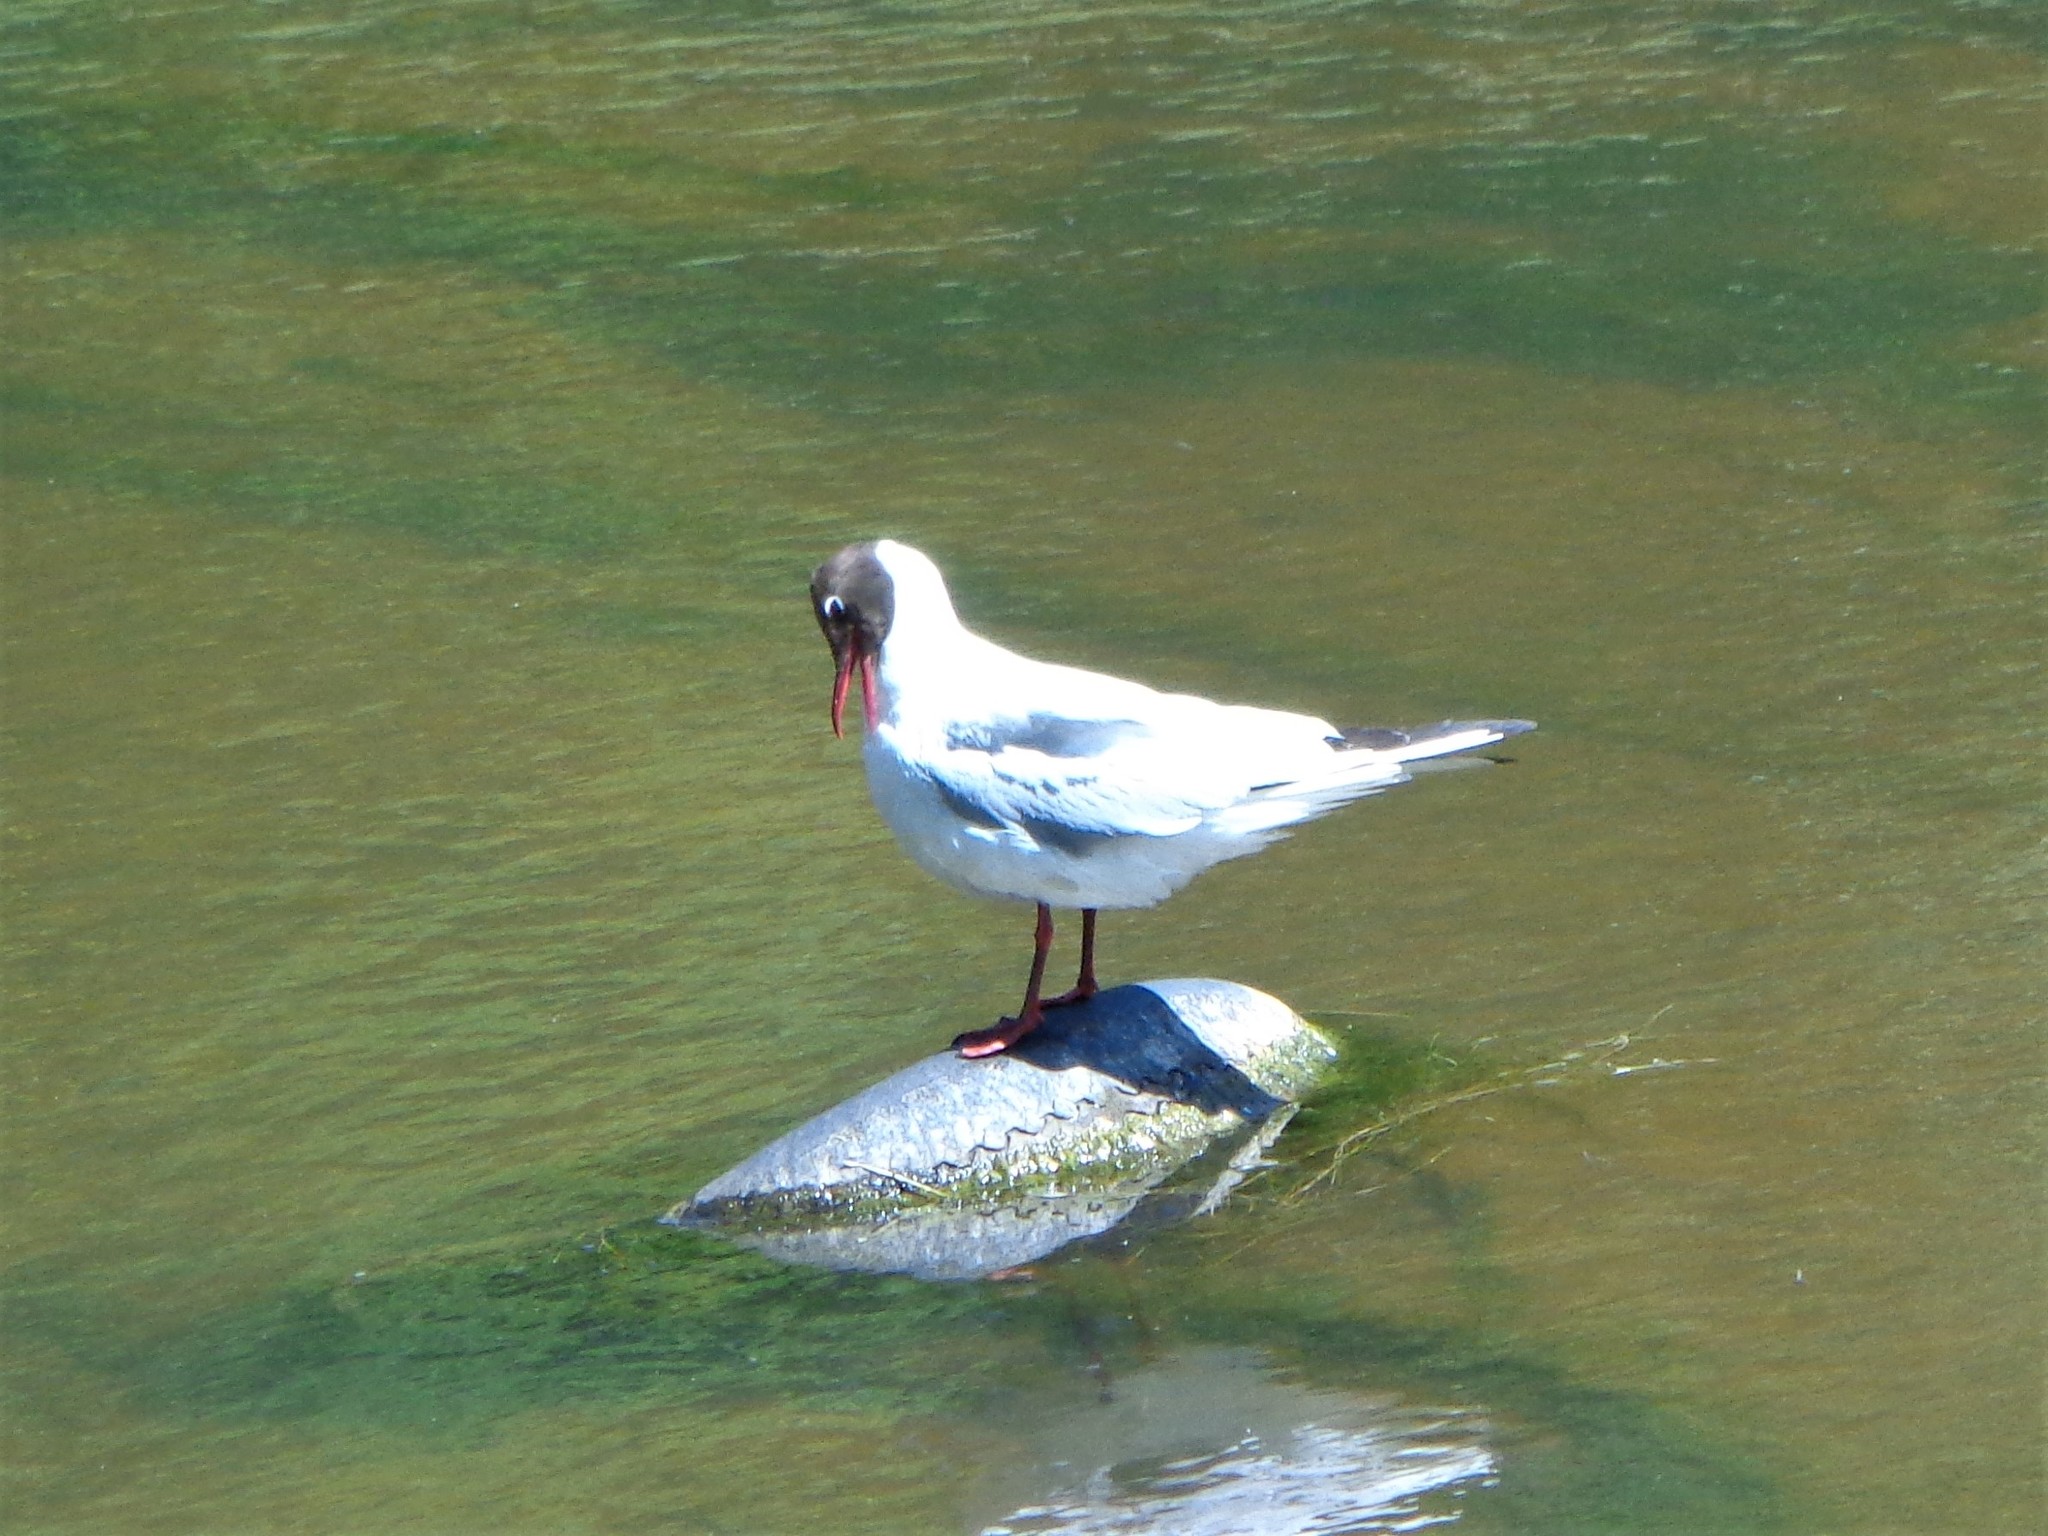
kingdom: Animalia
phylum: Chordata
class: Aves
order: Charadriiformes
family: Laridae
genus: Chroicocephalus
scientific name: Chroicocephalus ridibundus
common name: Black-headed gull
